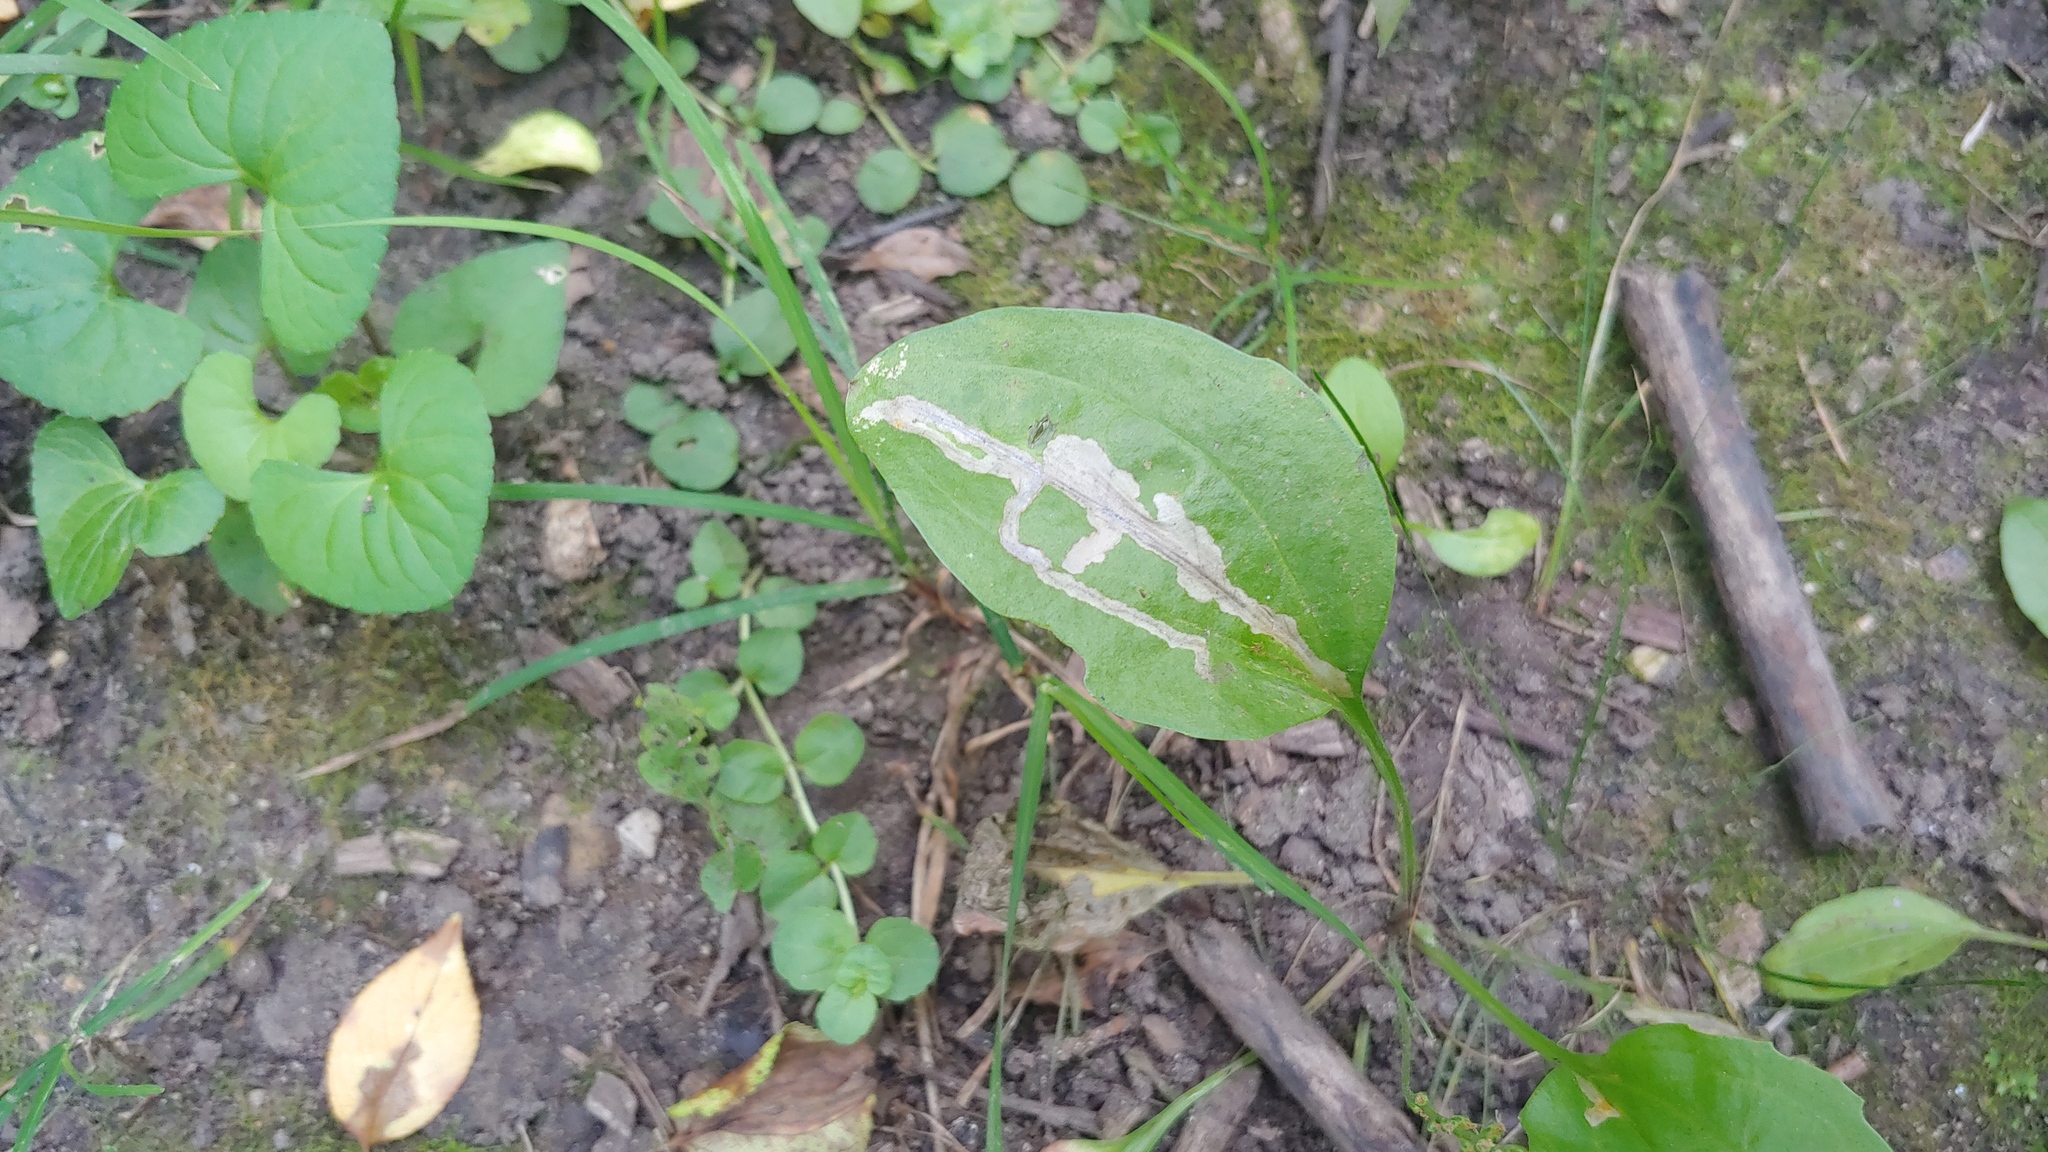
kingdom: Animalia
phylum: Arthropoda
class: Insecta
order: Coleoptera
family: Chrysomelidae
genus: Dibolia
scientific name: Dibolia borealis
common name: Northern plantain flea beetle
